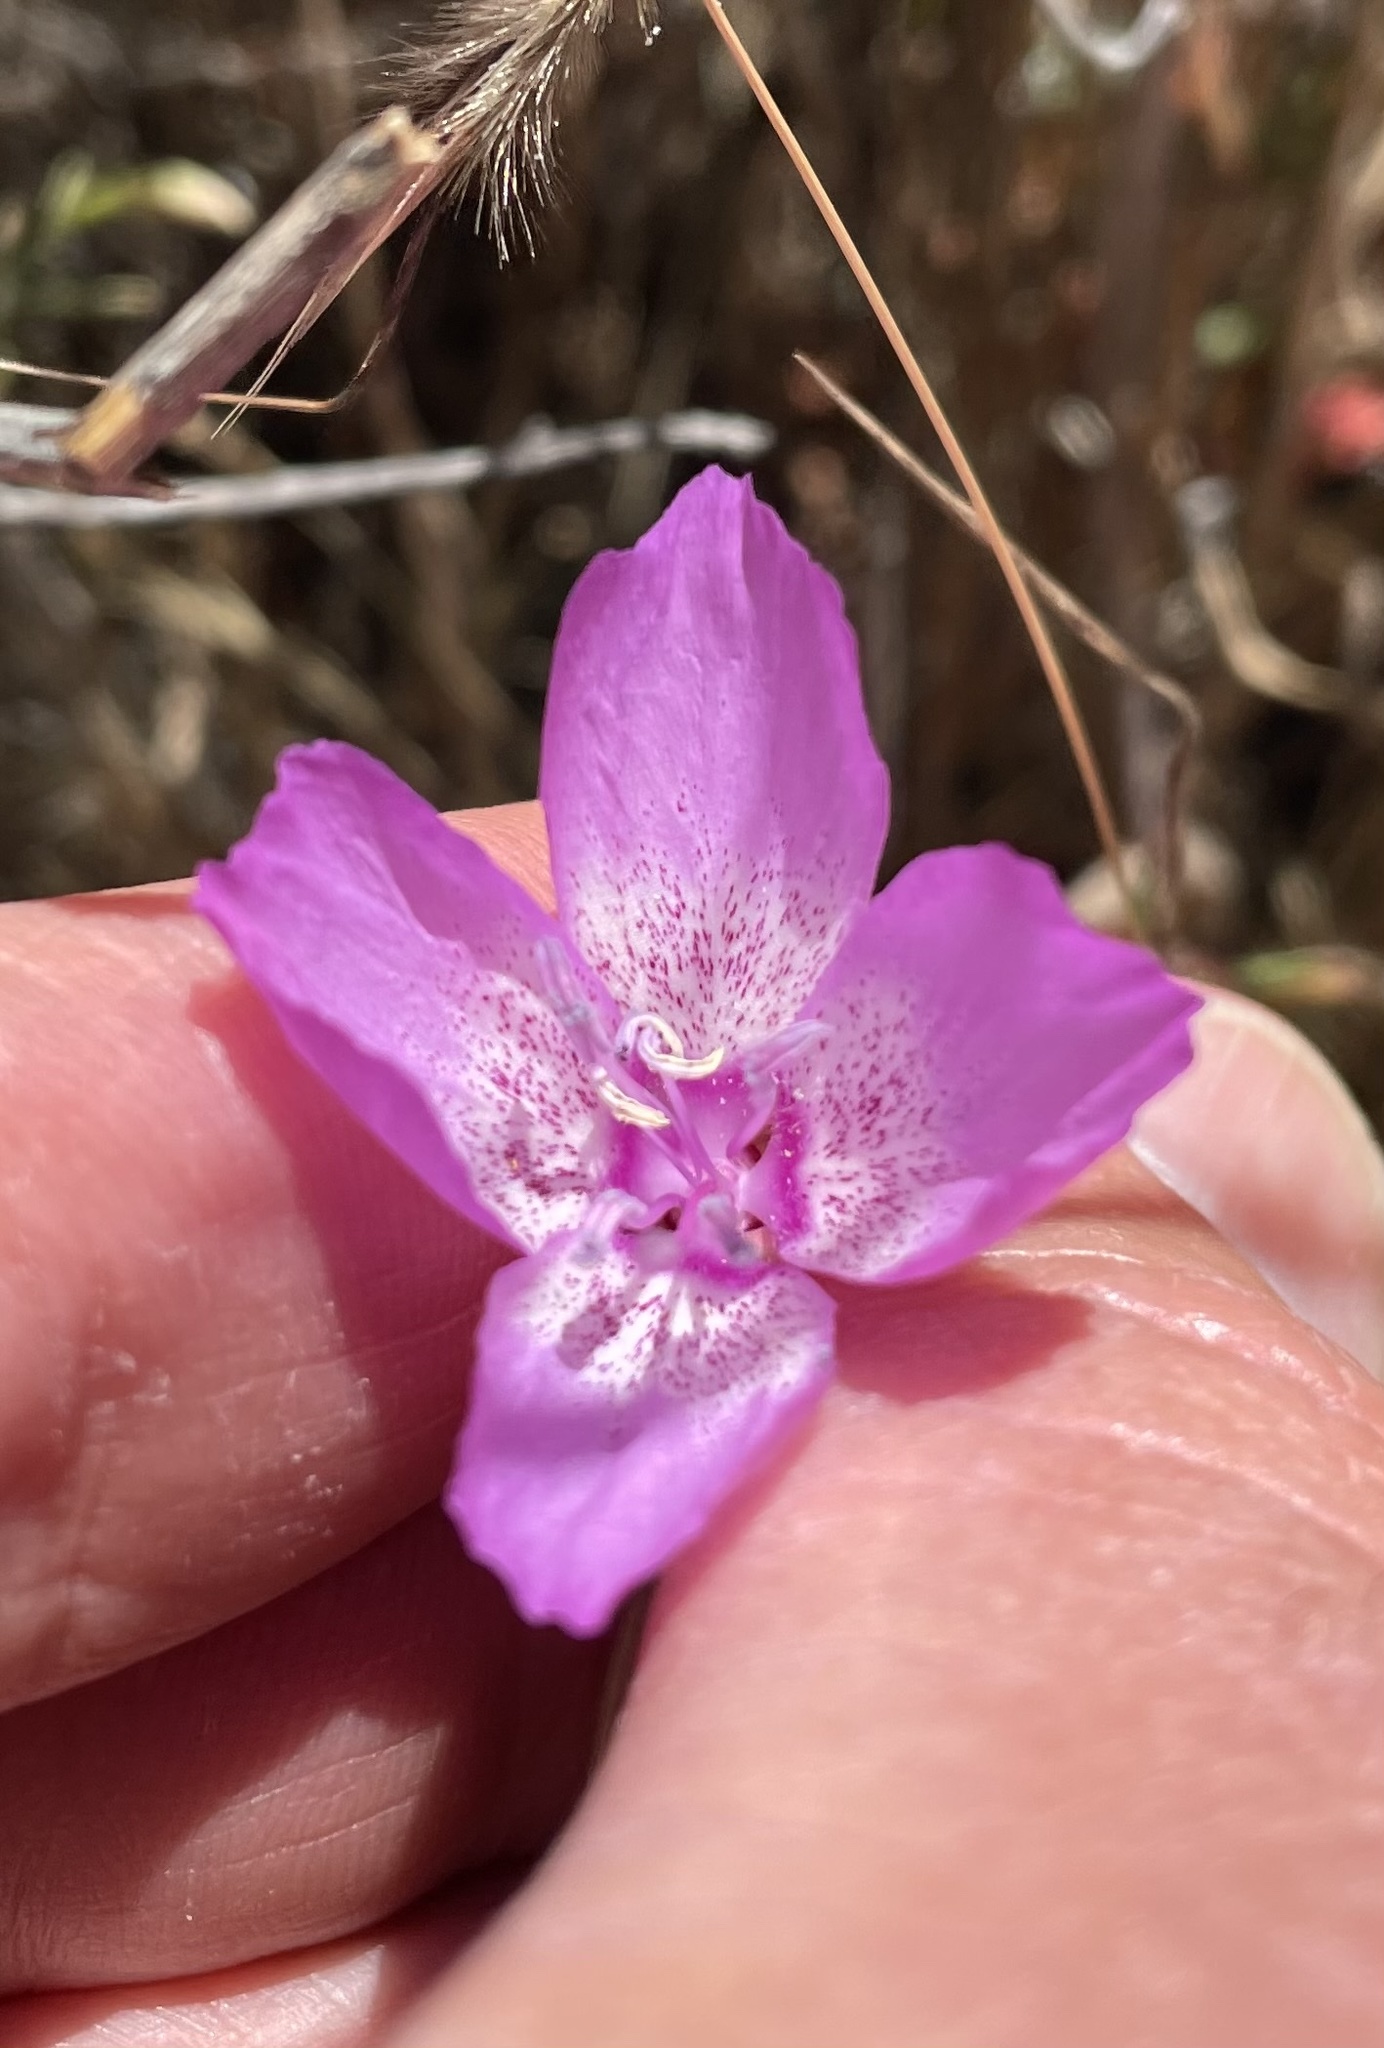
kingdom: Plantae
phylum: Tracheophyta
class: Magnoliopsida
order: Myrtales
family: Onagraceae
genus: Clarkia
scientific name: Clarkia lewisii
